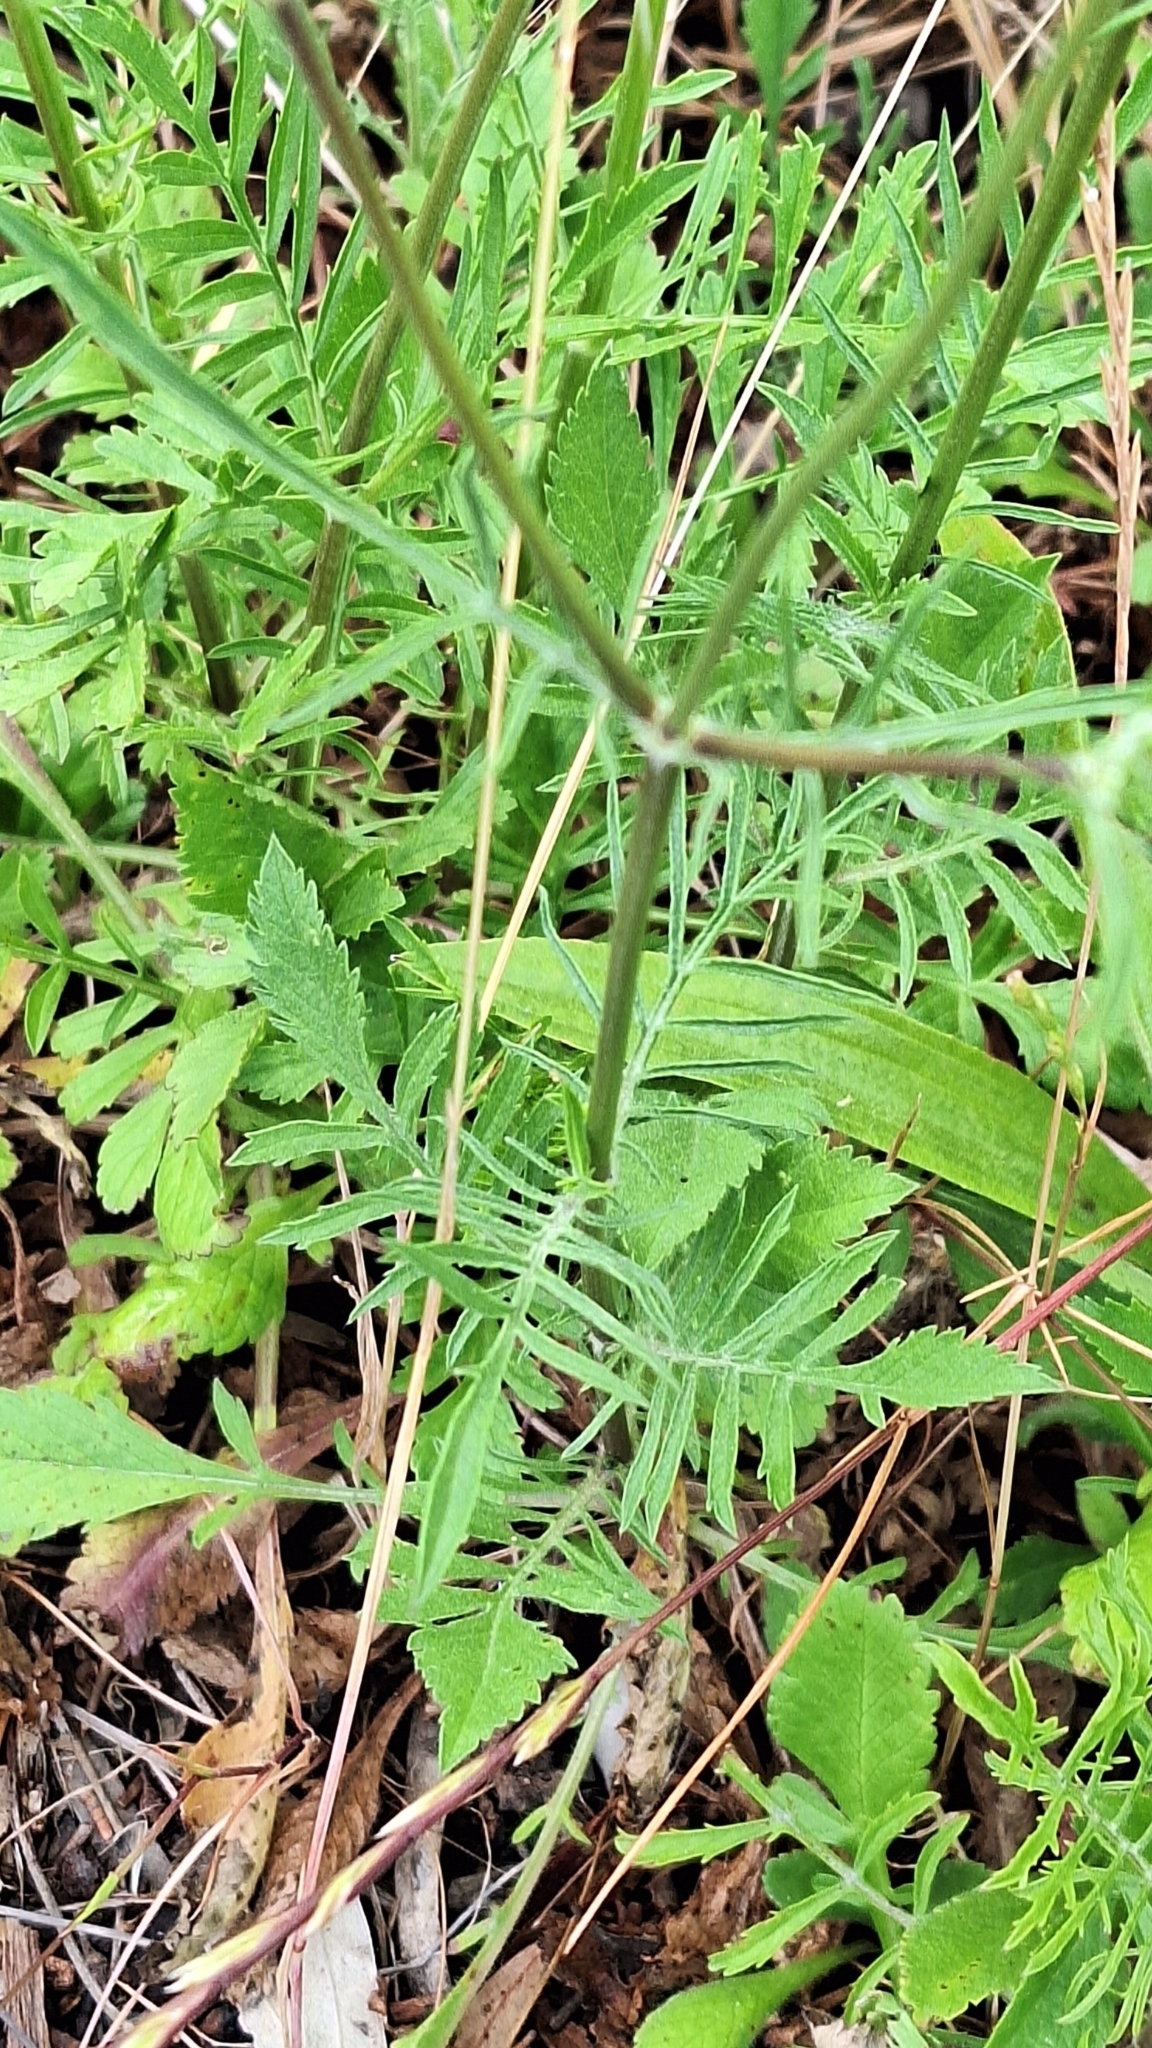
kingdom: Plantae
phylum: Tracheophyta
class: Magnoliopsida
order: Dipsacales
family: Caprifoliaceae
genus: Sixalix
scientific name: Sixalix atropurpurea
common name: Sweet scabious
